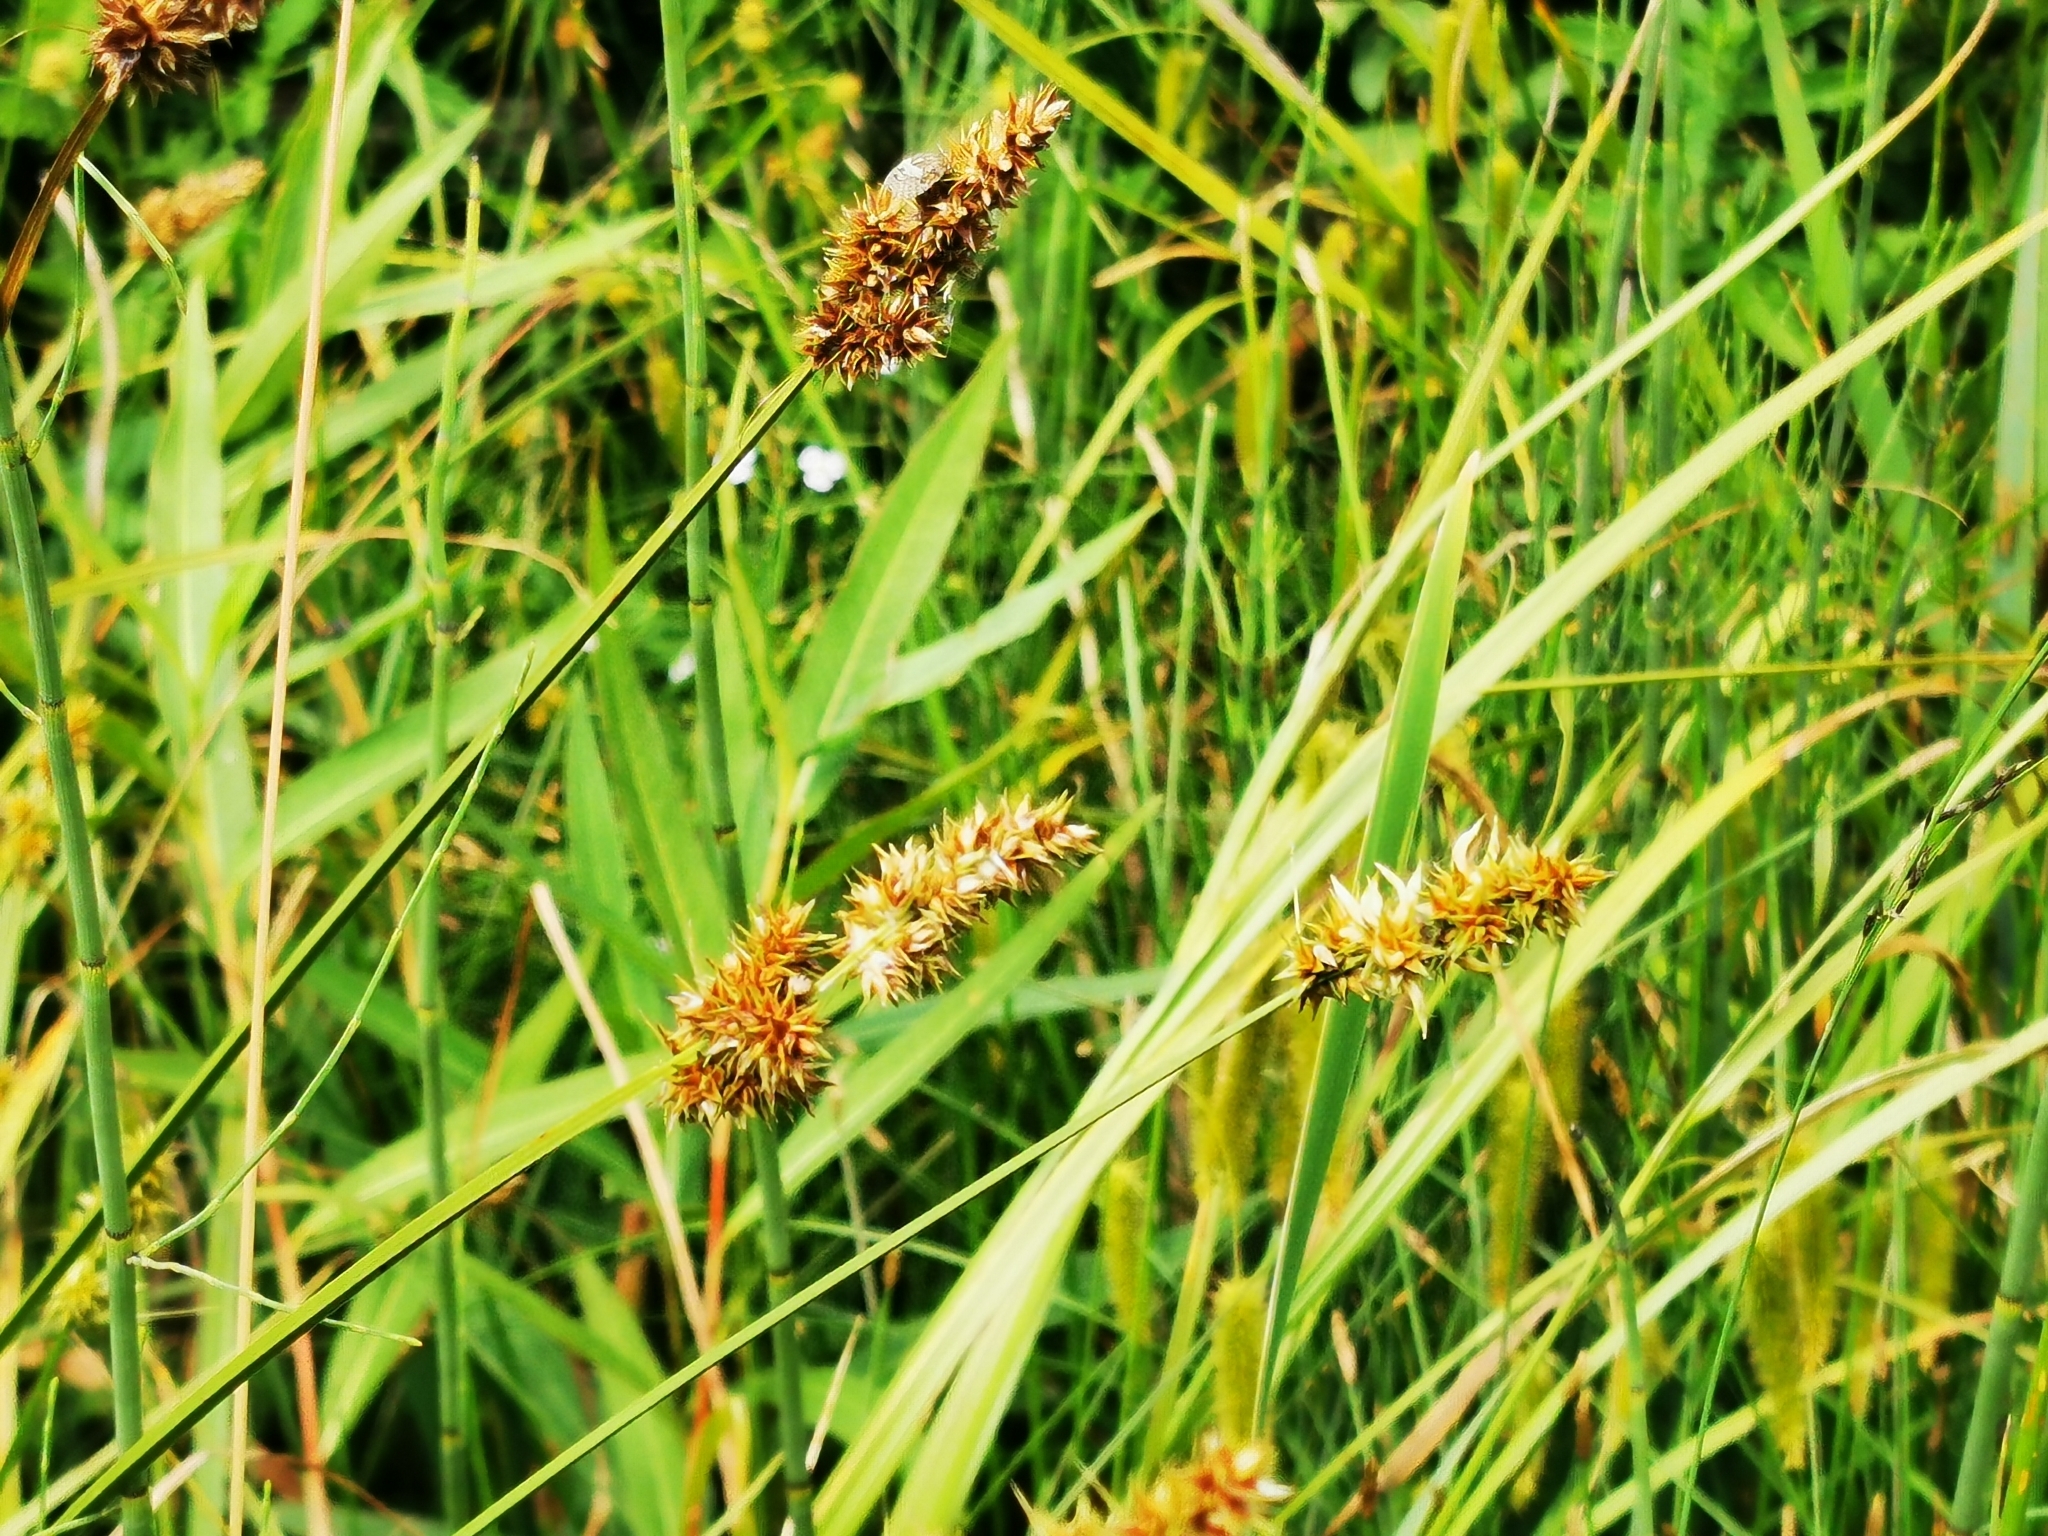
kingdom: Plantae
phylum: Tracheophyta
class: Liliopsida
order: Poales
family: Cyperaceae
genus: Carex
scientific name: Carex vulpina
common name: True fox-sedge
